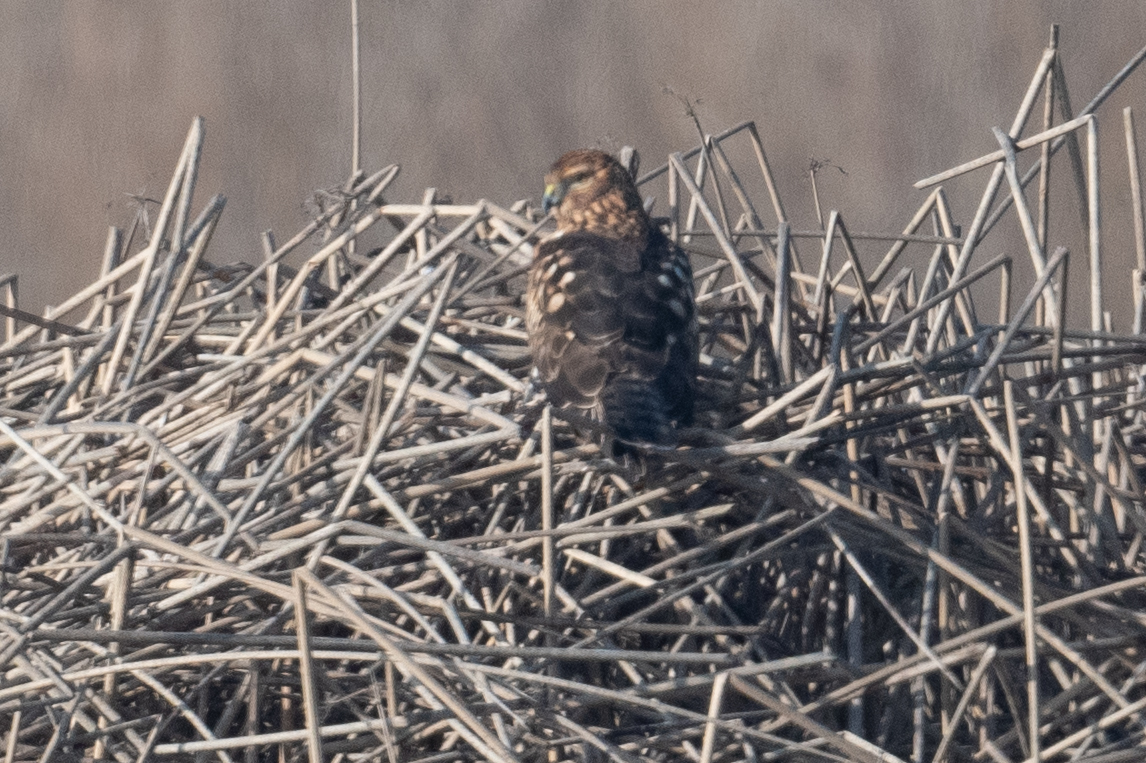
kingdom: Animalia
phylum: Chordata
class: Aves
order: Accipitriformes
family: Accipitridae
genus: Circus
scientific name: Circus cyaneus
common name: Hen harrier
